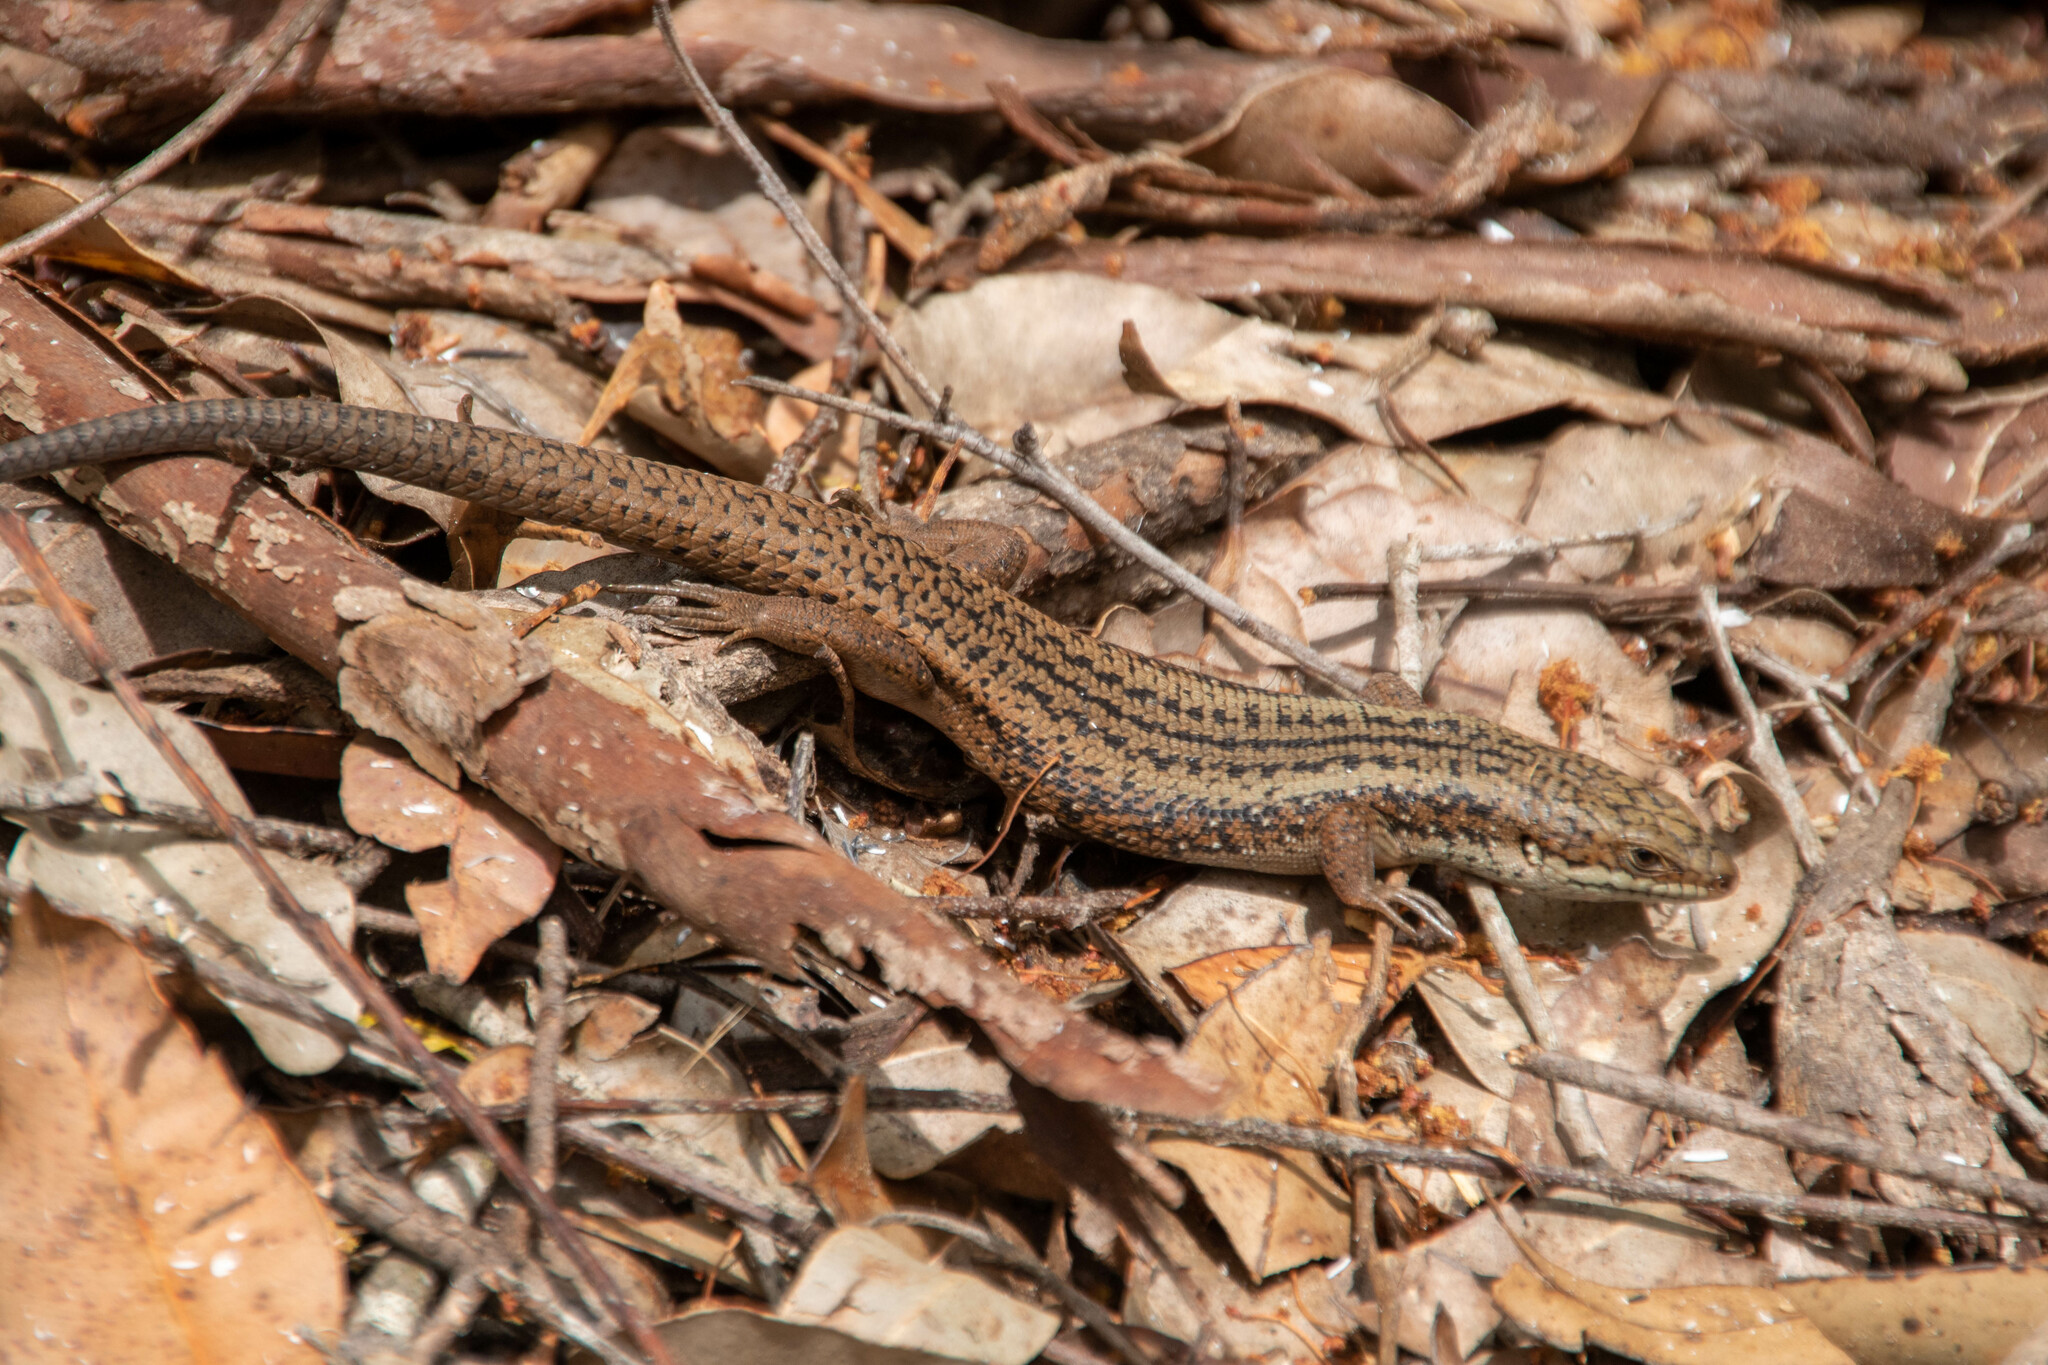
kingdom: Animalia
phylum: Chordata
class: Squamata
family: Scincidae
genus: Egernia
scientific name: Egernia napoleonis
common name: South-western crevice skink
